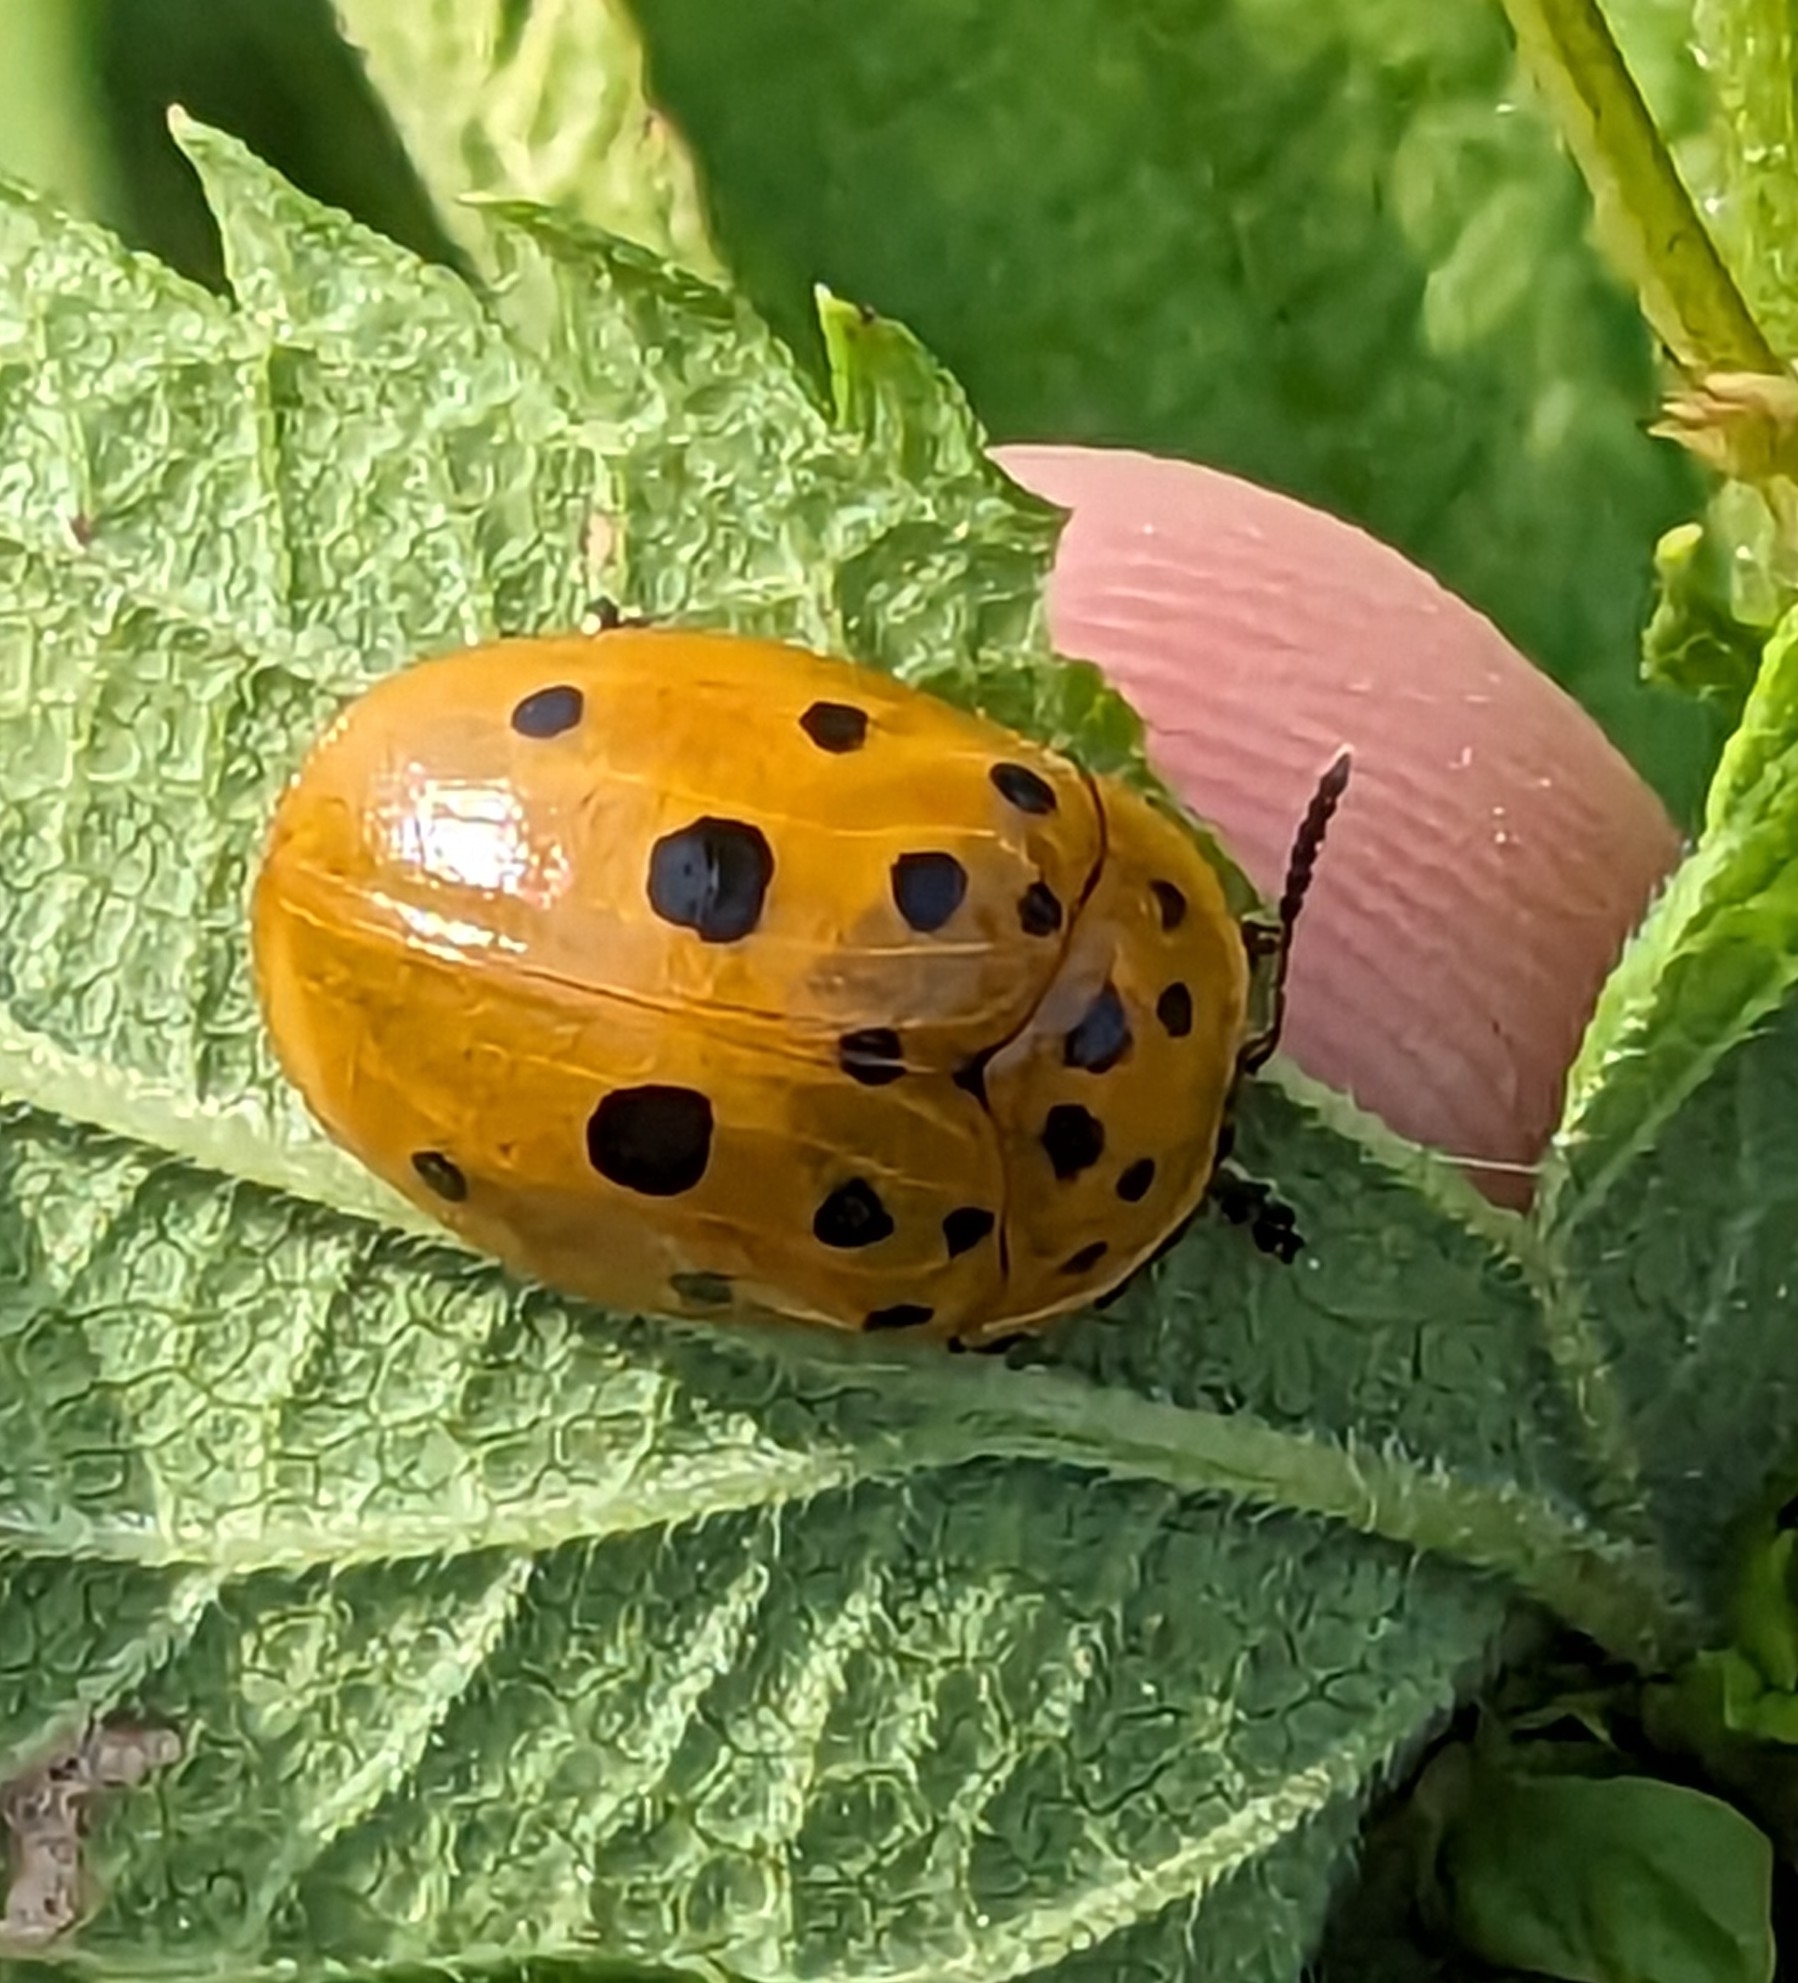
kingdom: Animalia
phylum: Arthropoda
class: Insecta
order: Coleoptera
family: Chrysomelidae
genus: Chelymorpha
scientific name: Chelymorpha cassidea
